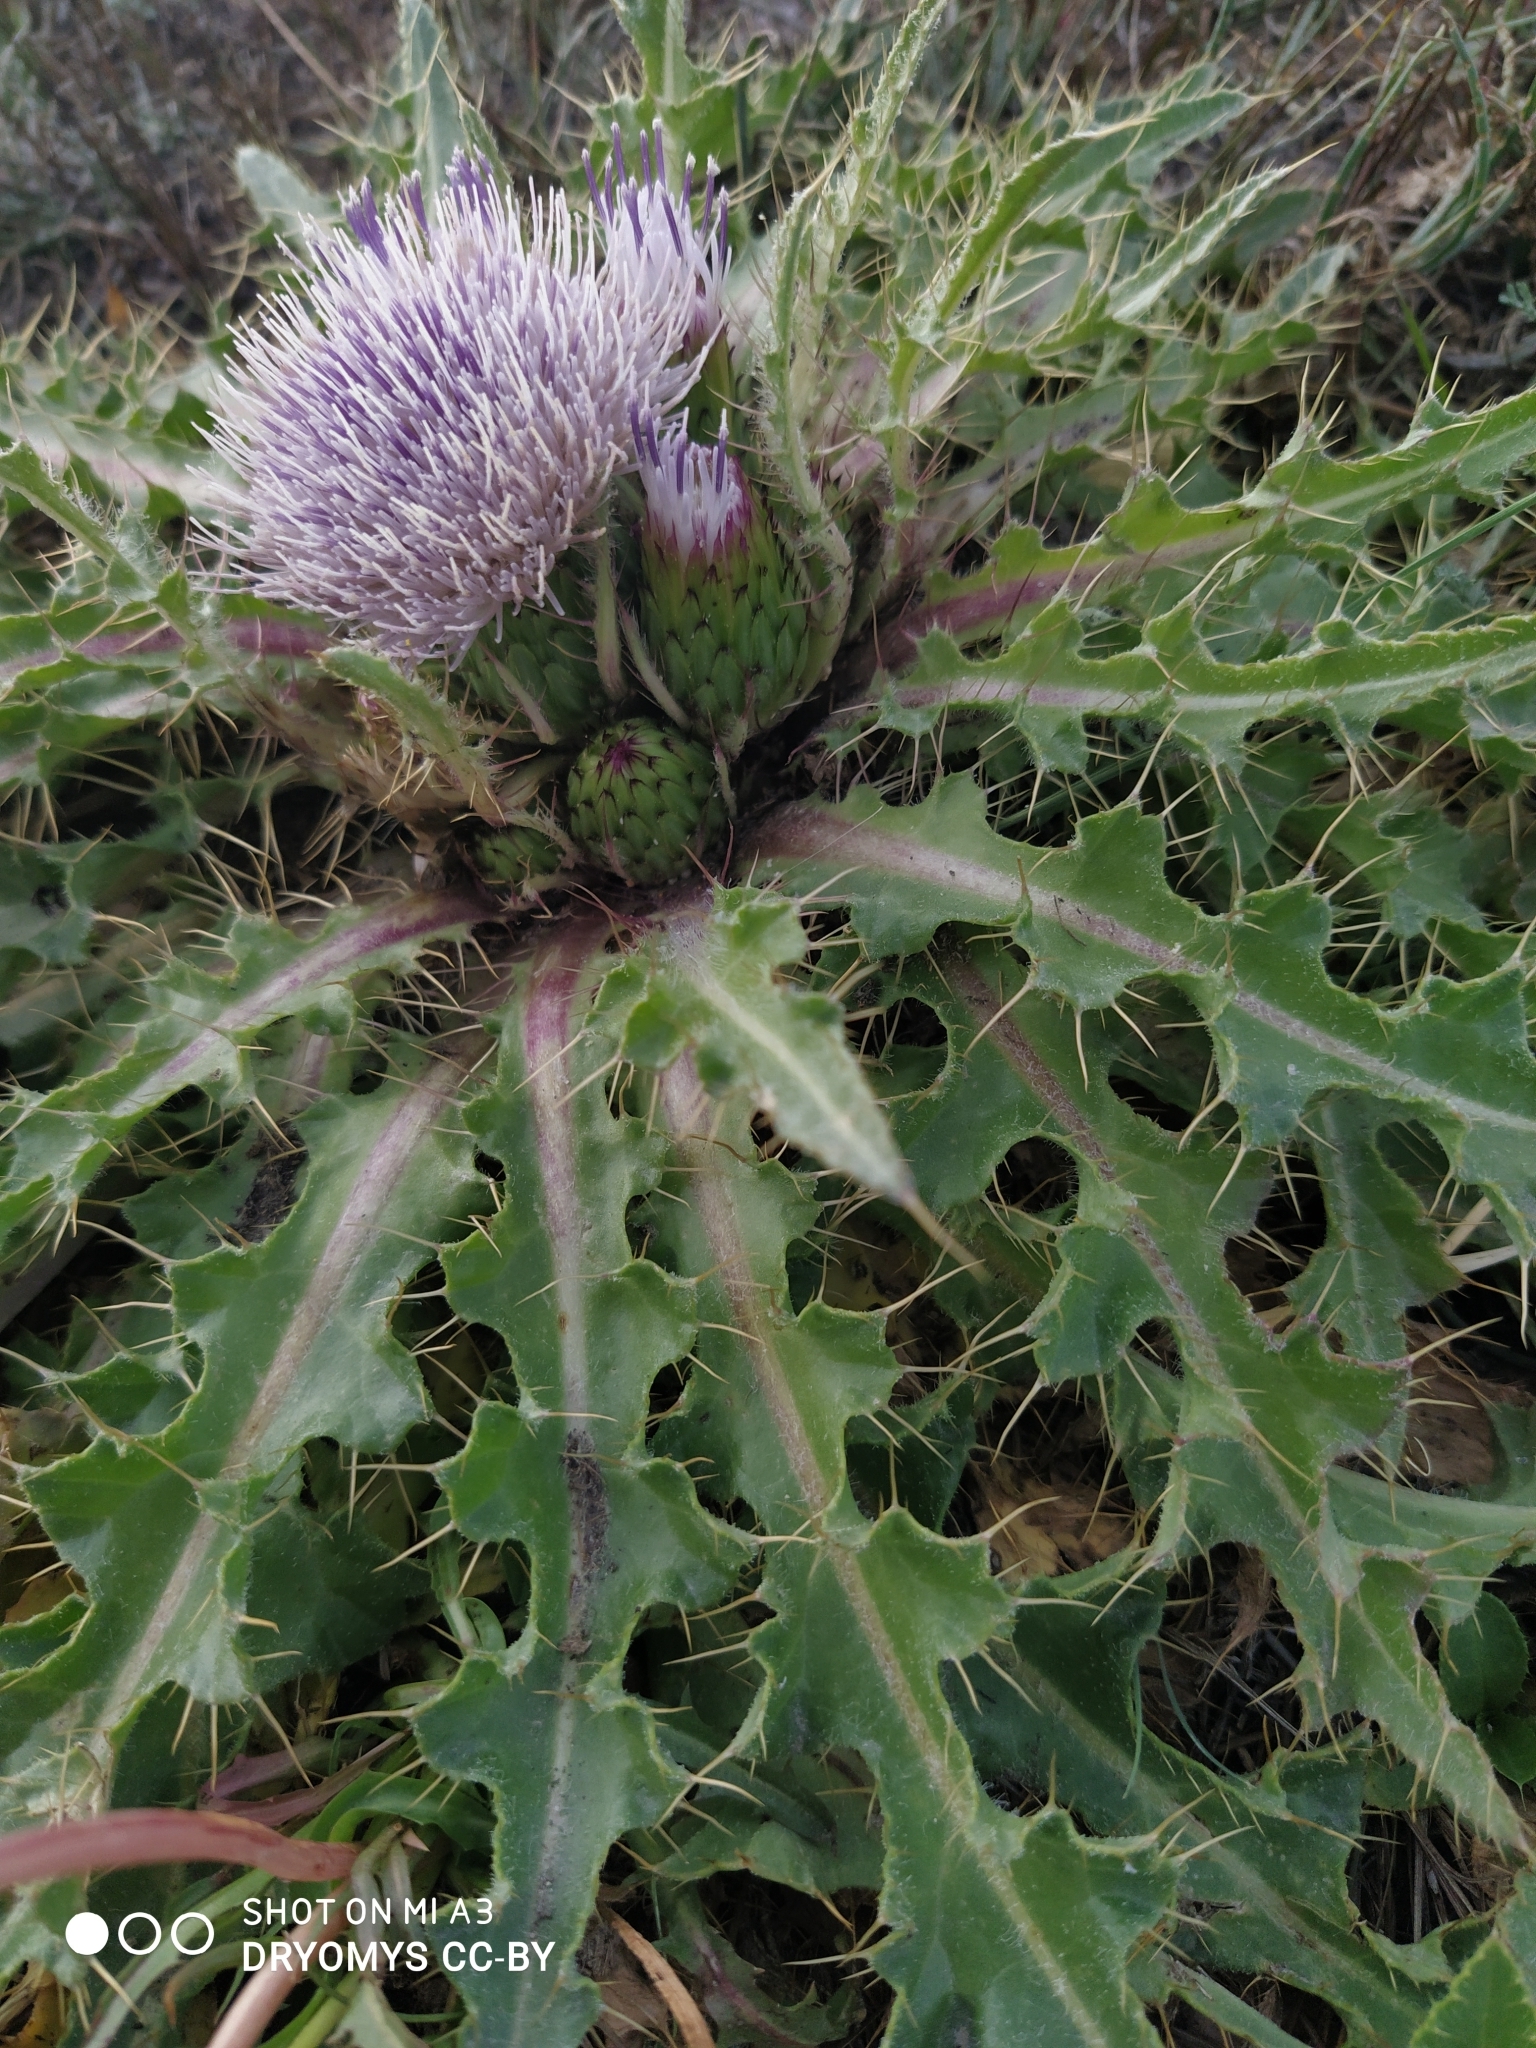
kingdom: Plantae
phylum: Tracheophyta
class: Magnoliopsida
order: Asterales
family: Asteraceae
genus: Cirsium
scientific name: Cirsium esculentum
